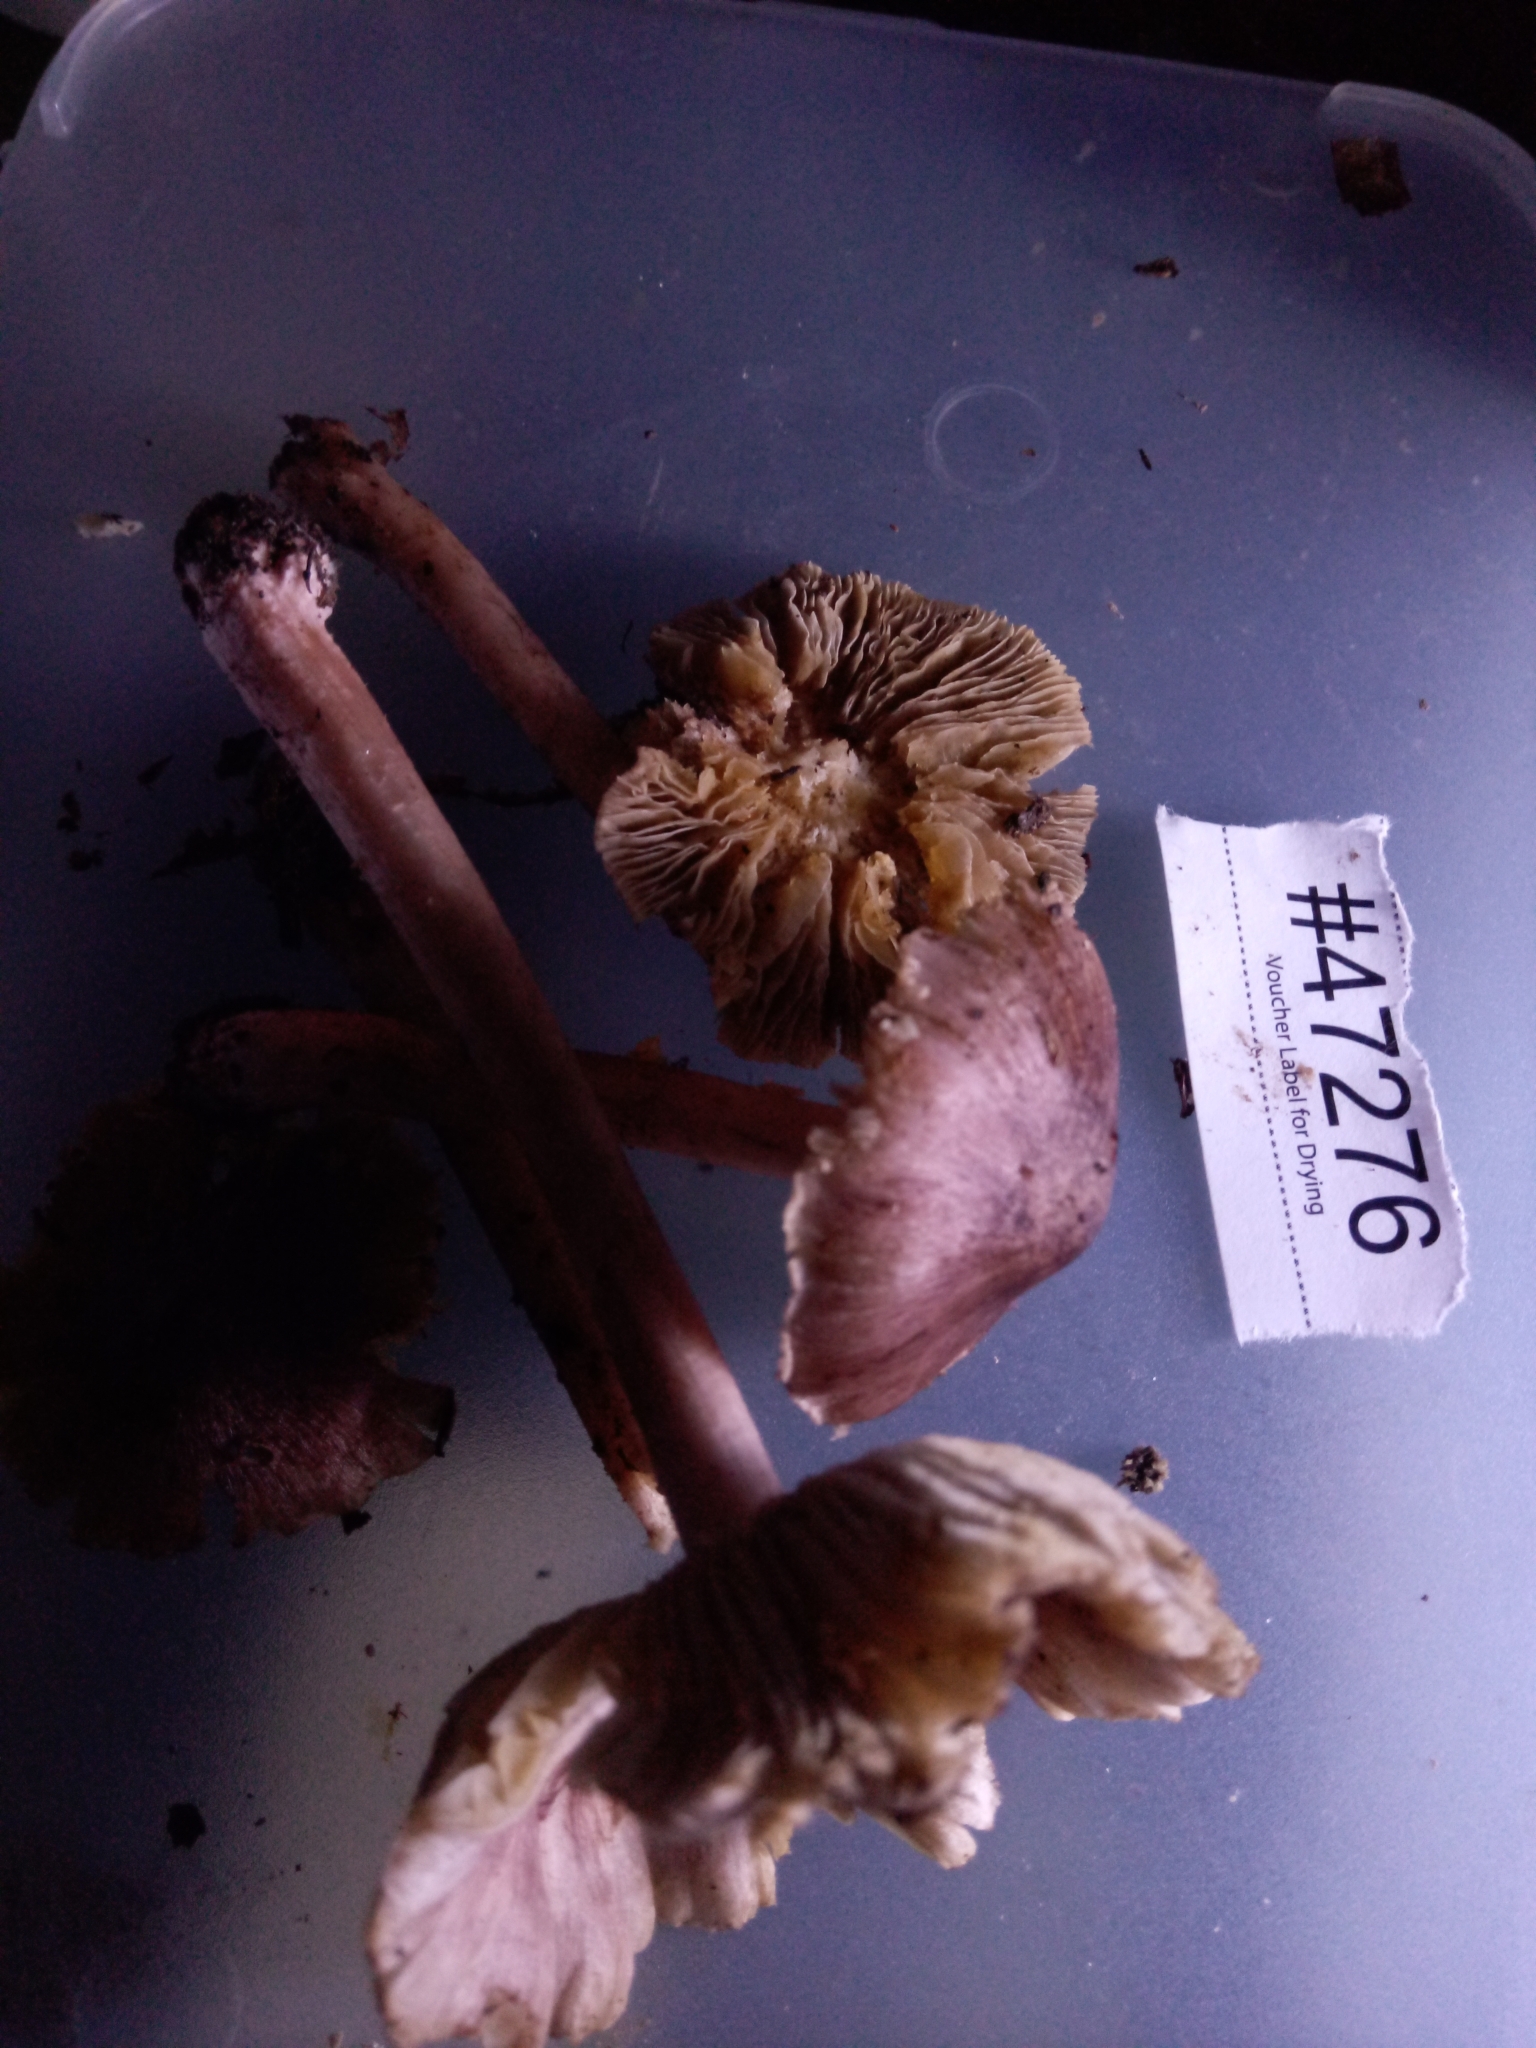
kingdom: Fungi
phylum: Basidiomycota
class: Agaricomycetes
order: Agaricales
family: Inocybaceae
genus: Inosperma
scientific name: Inosperma vinaceobrunneum
